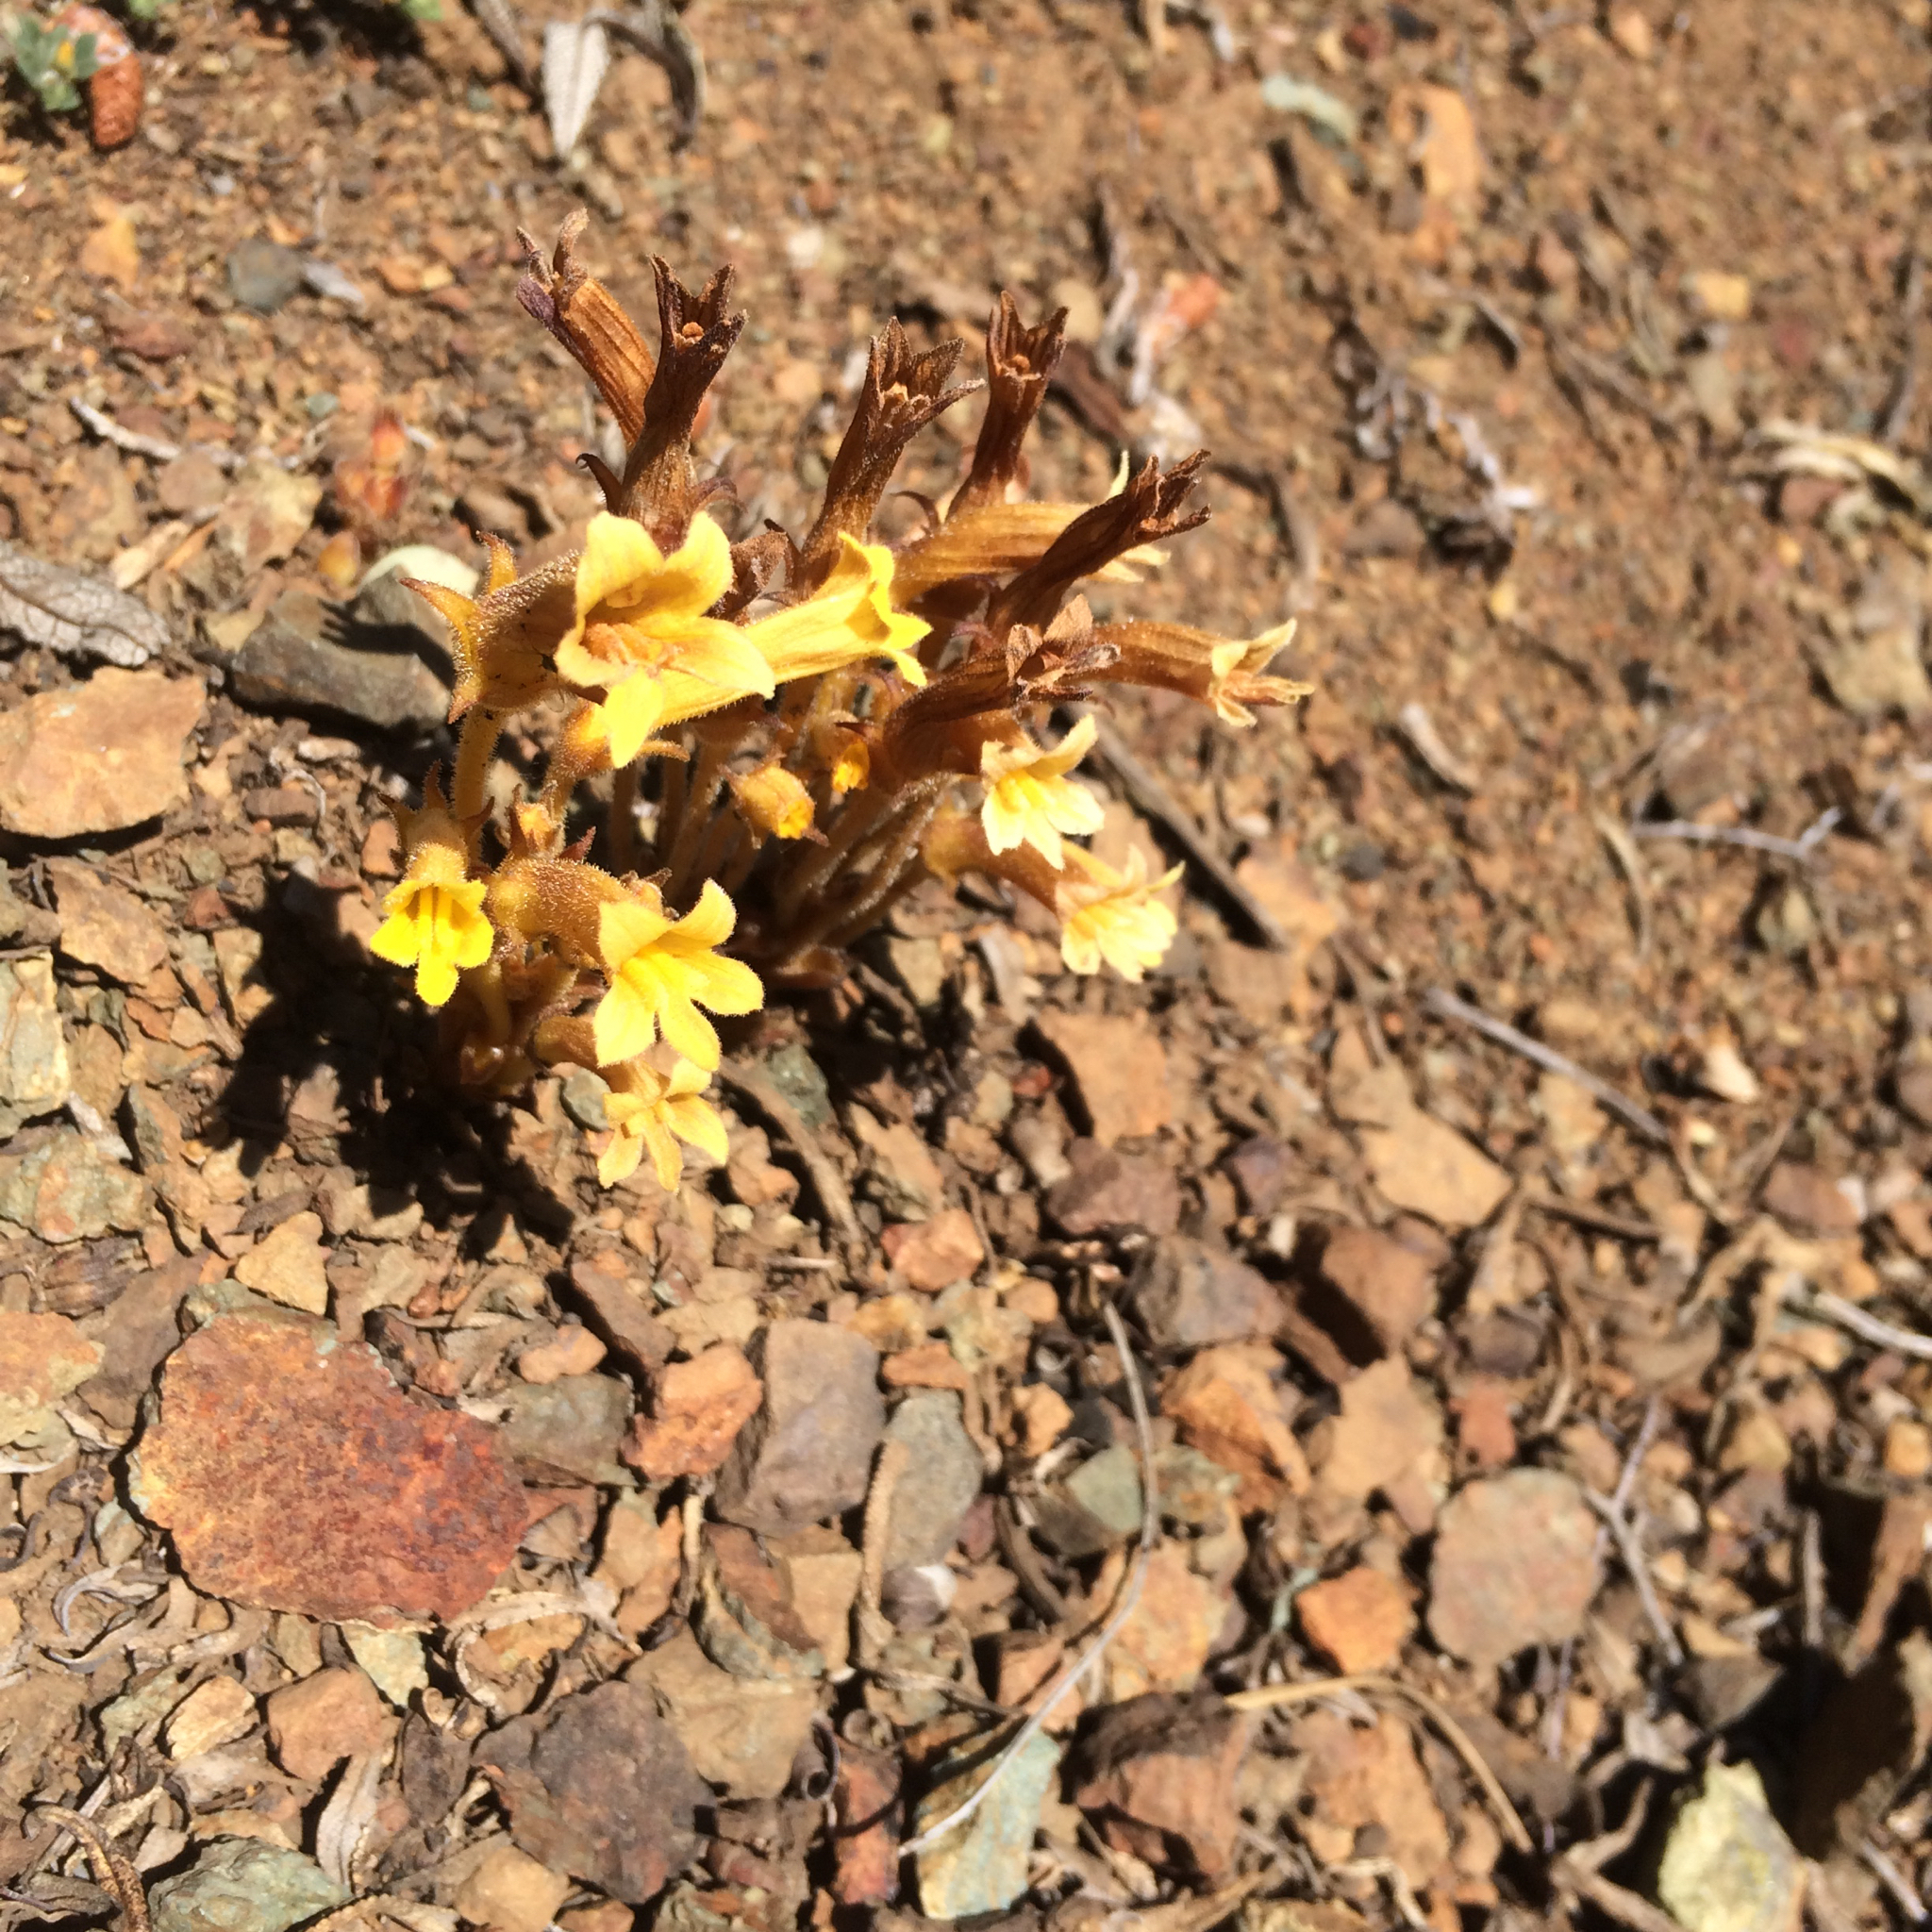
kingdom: Plantae
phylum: Tracheophyta
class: Magnoliopsida
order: Lamiales
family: Orobanchaceae
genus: Aphyllon
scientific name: Aphyllon franciscanum
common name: San francisco broomrape
